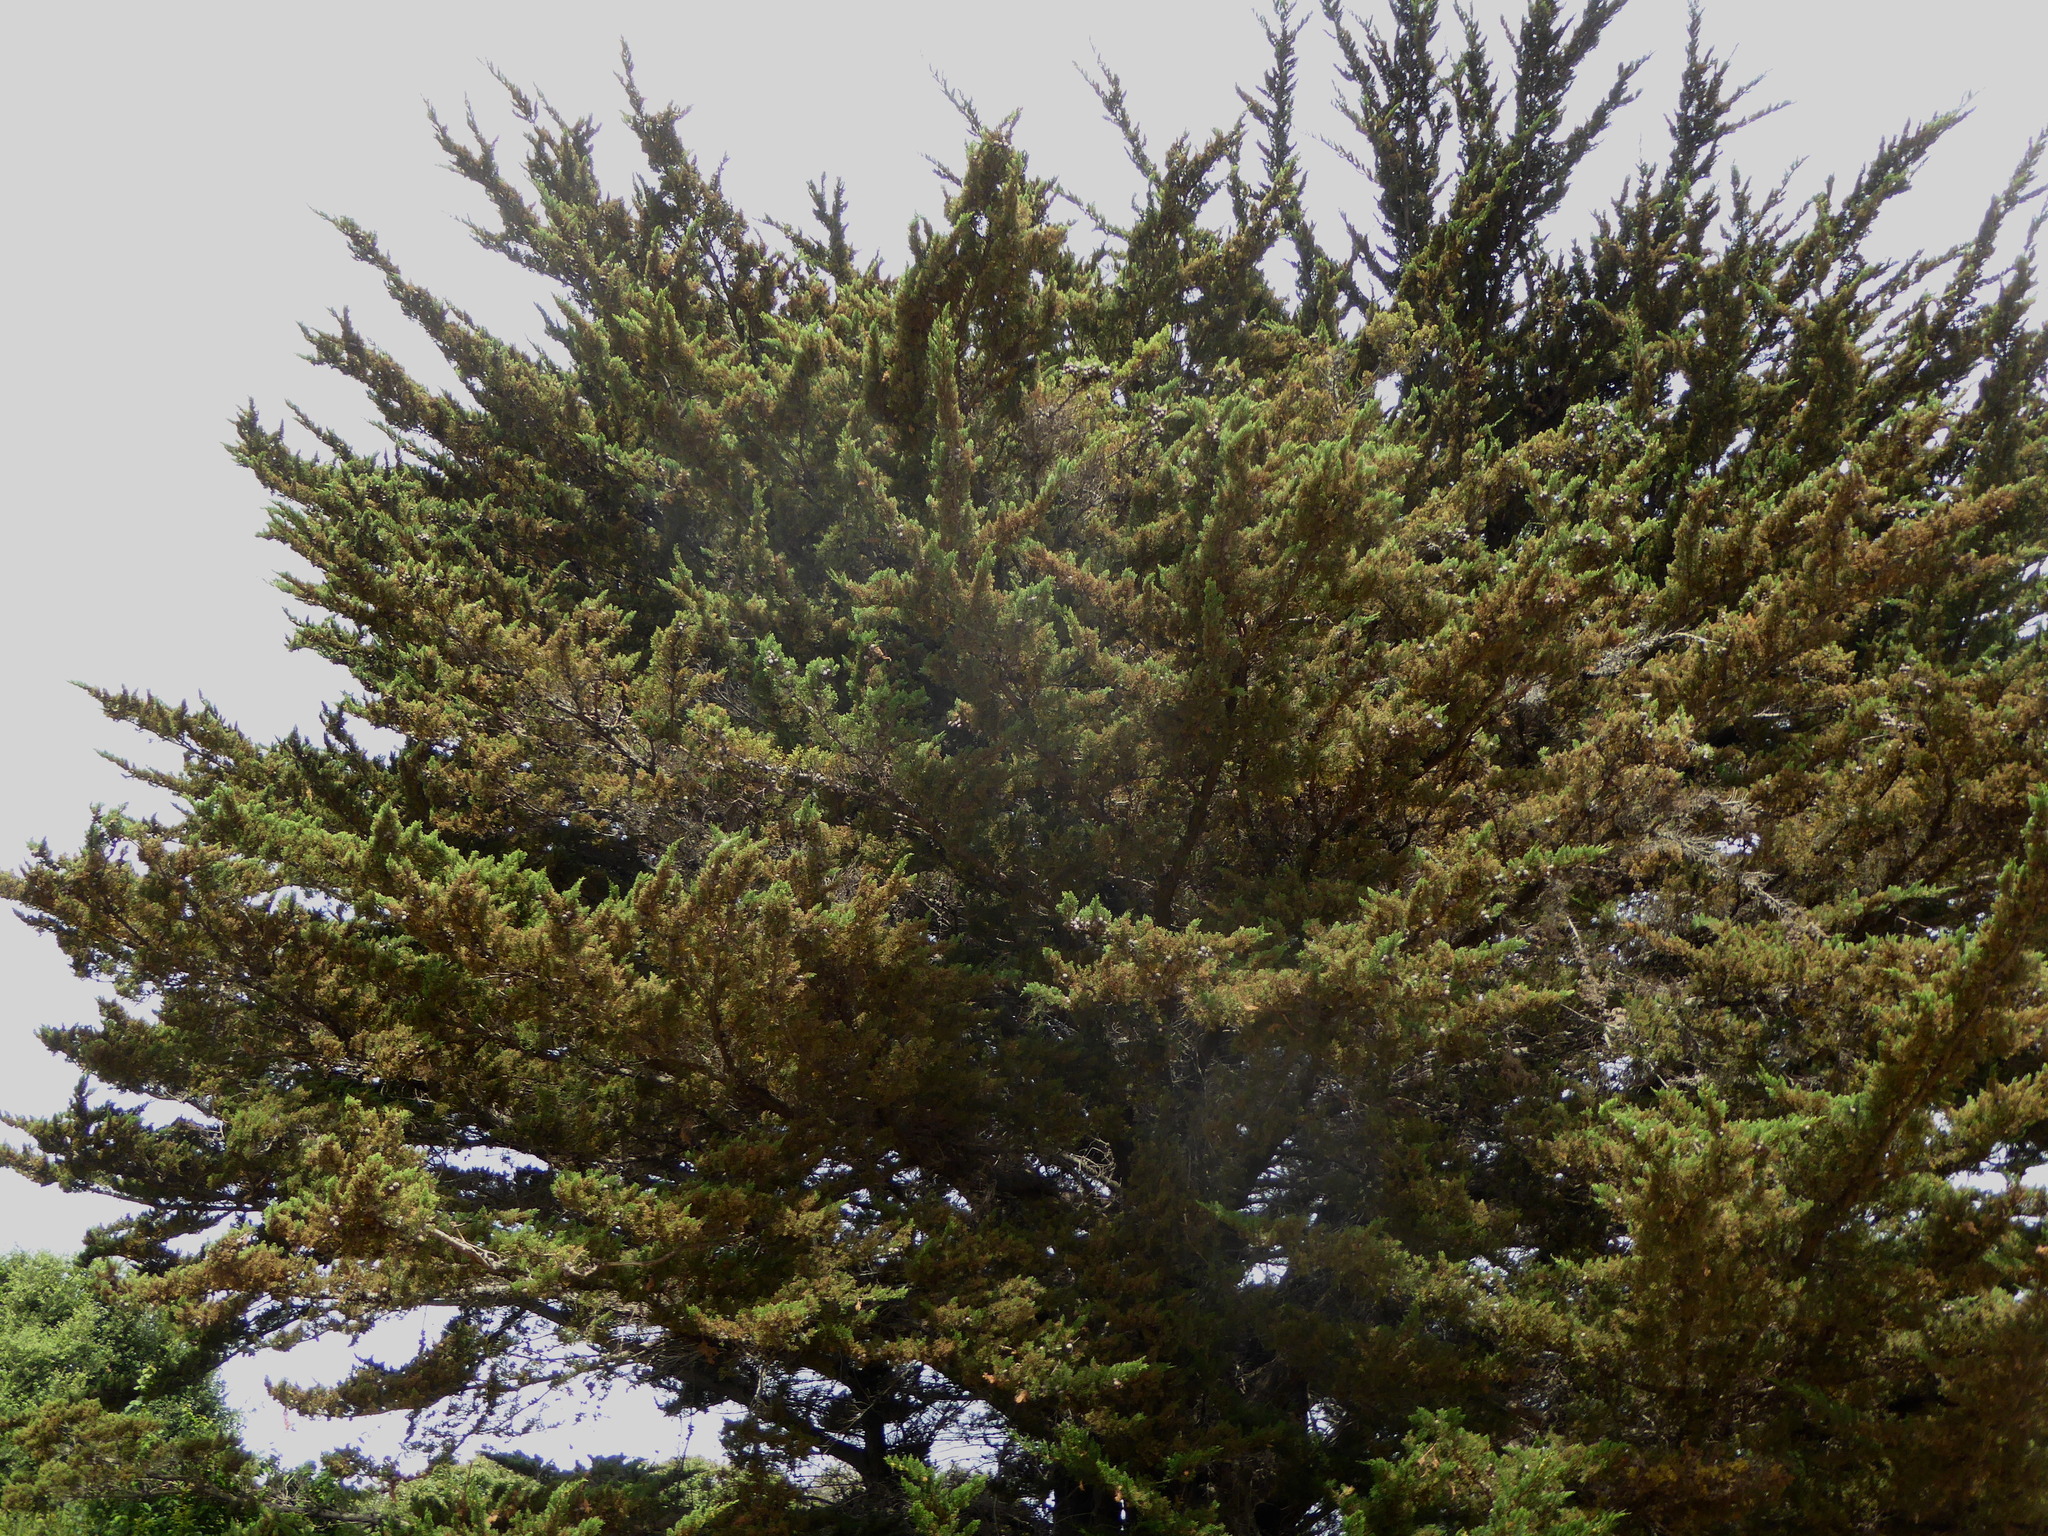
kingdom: Plantae
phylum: Tracheophyta
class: Pinopsida
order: Pinales
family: Cupressaceae
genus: Cupressus
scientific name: Cupressus macrocarpa
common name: Monterey cypress
